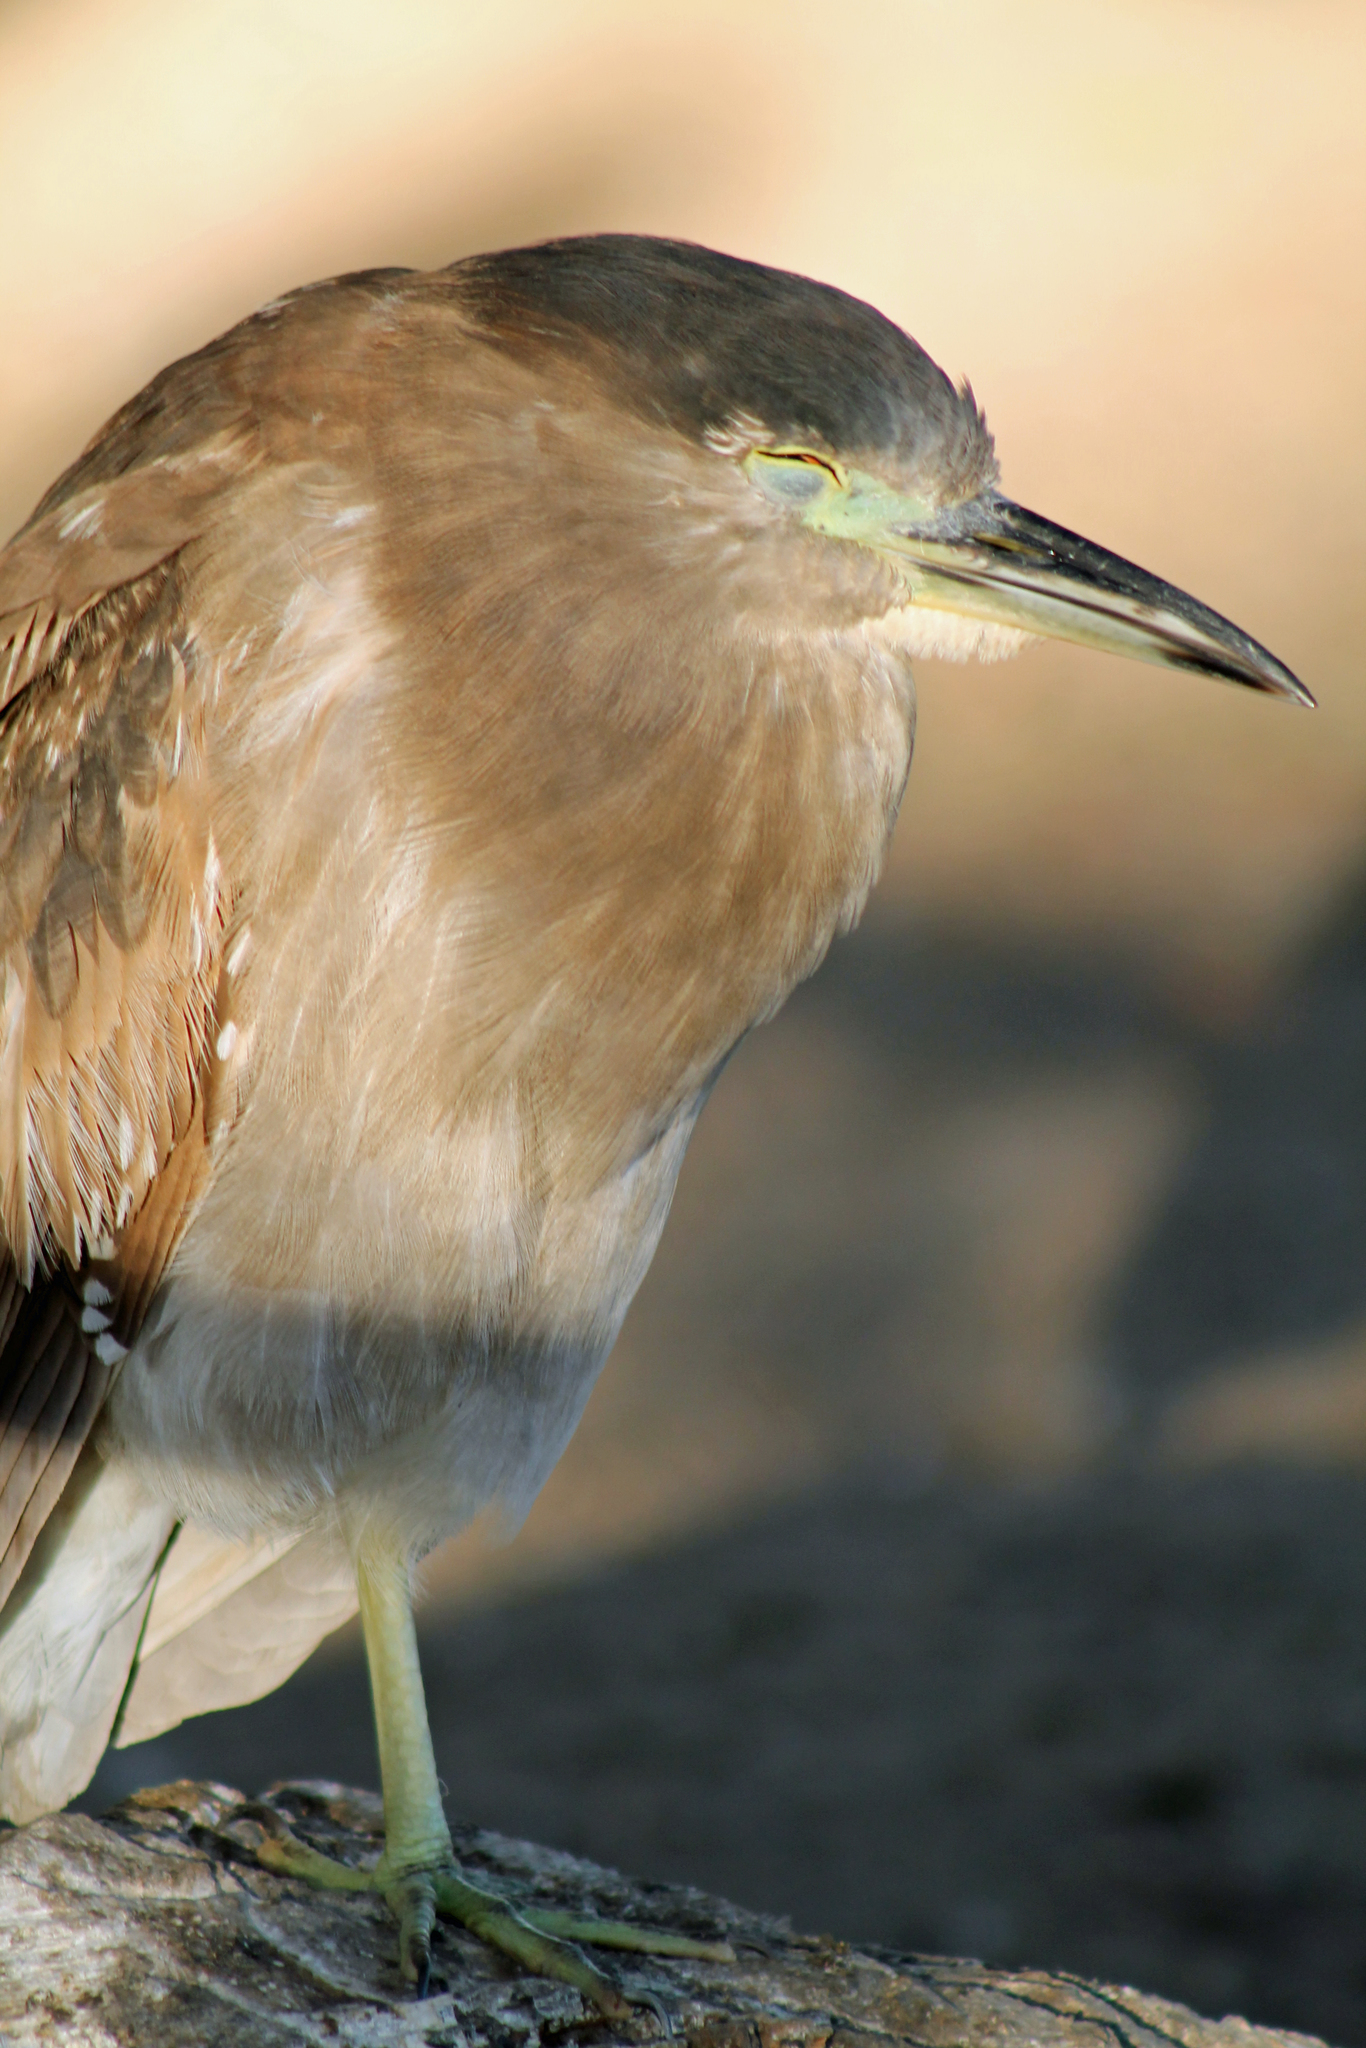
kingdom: Animalia
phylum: Chordata
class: Aves
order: Pelecaniformes
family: Ardeidae
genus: Nycticorax
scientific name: Nycticorax nycticorax
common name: Black-crowned night heron
